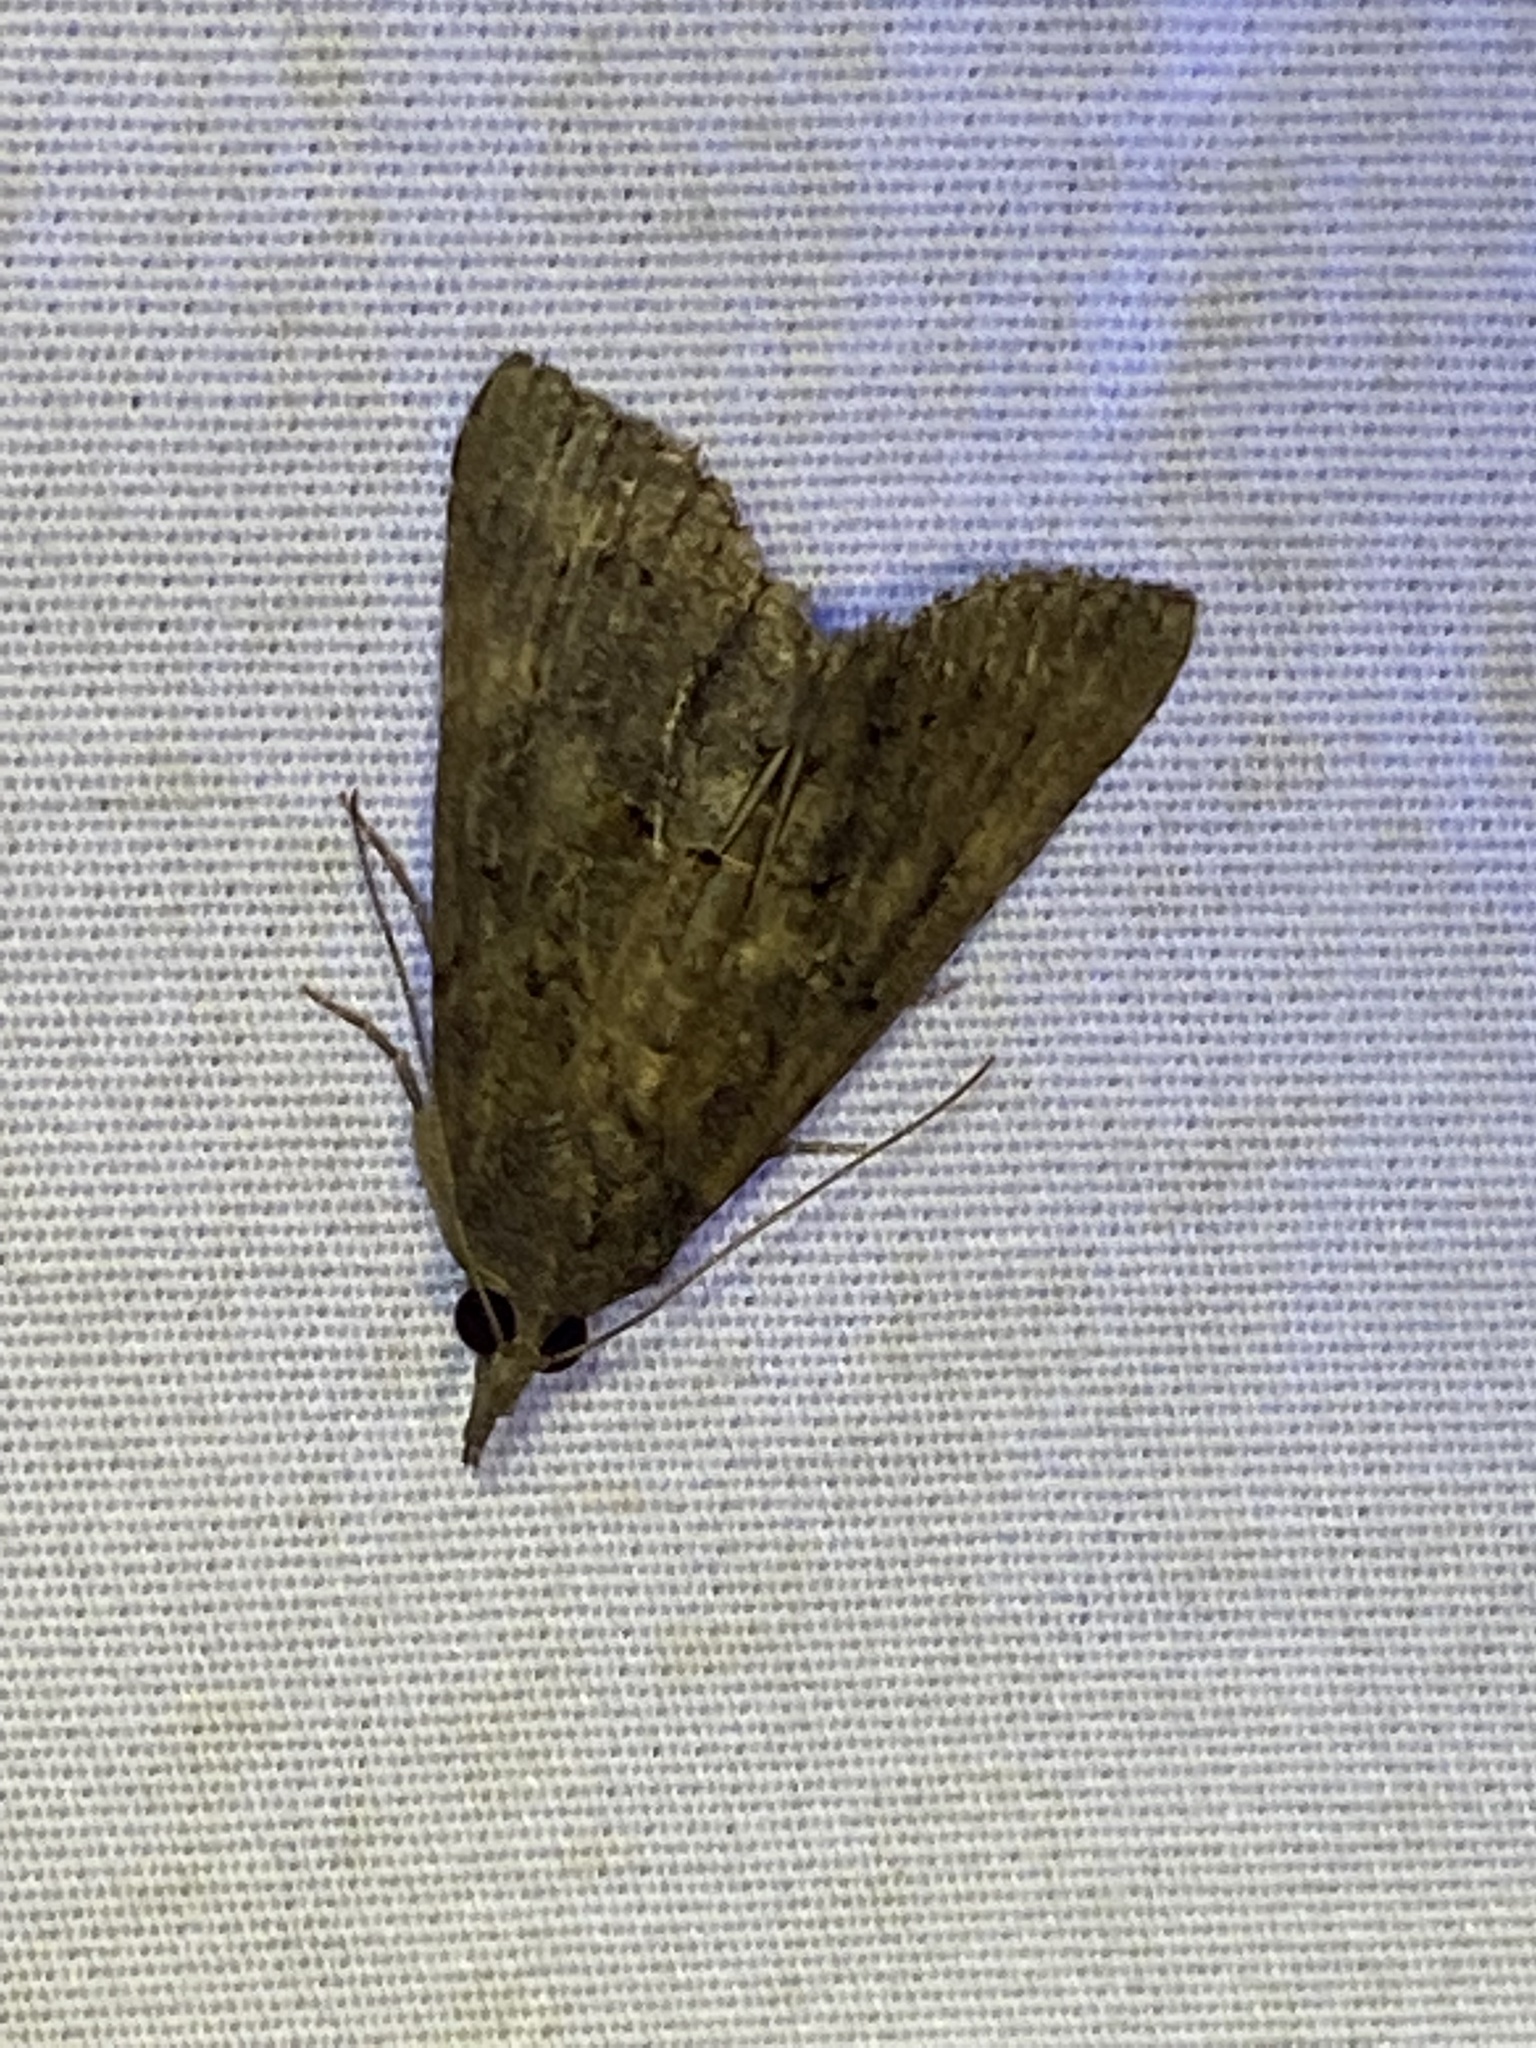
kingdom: Animalia
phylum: Arthropoda
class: Insecta
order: Lepidoptera
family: Erebidae
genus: Hypena
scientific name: Hypena scabra
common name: Green cloverworm
